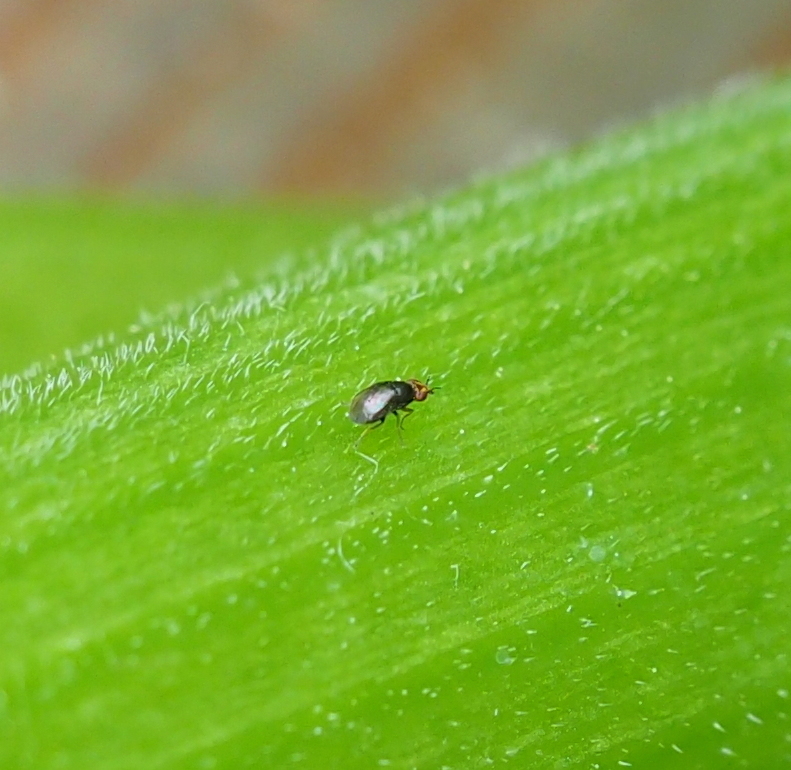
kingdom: Animalia
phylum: Arthropoda
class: Insecta
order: Diptera
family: Chloropidae
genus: Camarota
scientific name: Camarota curvipennis
